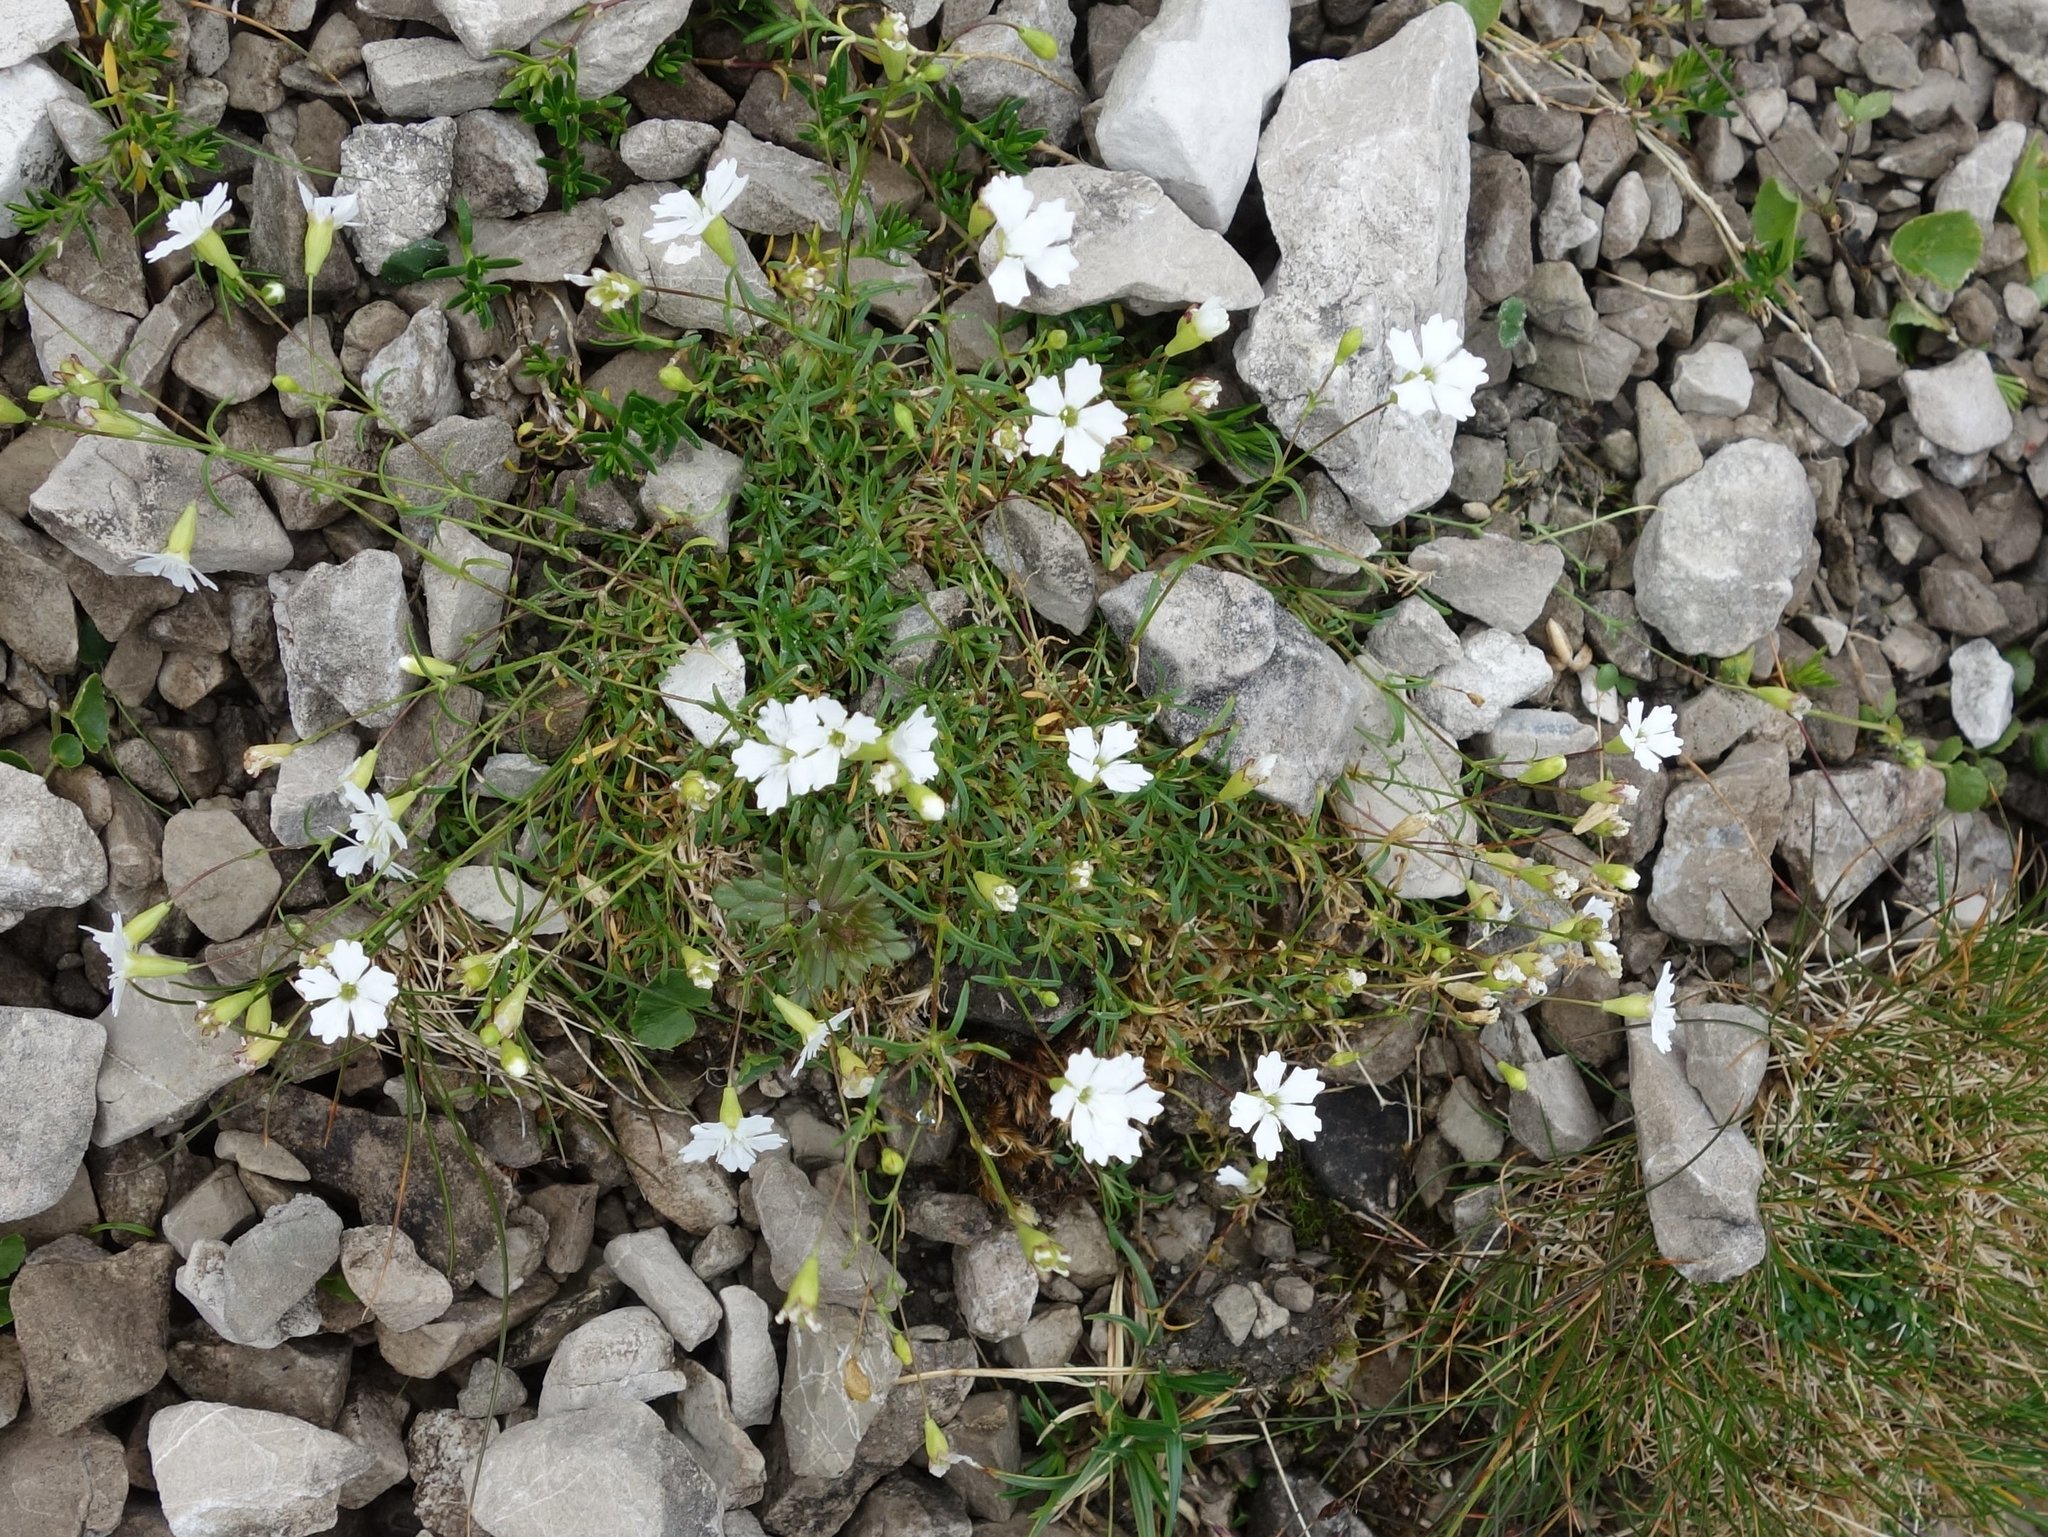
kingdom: Plantae
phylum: Tracheophyta
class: Magnoliopsida
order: Caryophyllales
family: Caryophyllaceae
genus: Heliosperma
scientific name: Heliosperma pusillum
